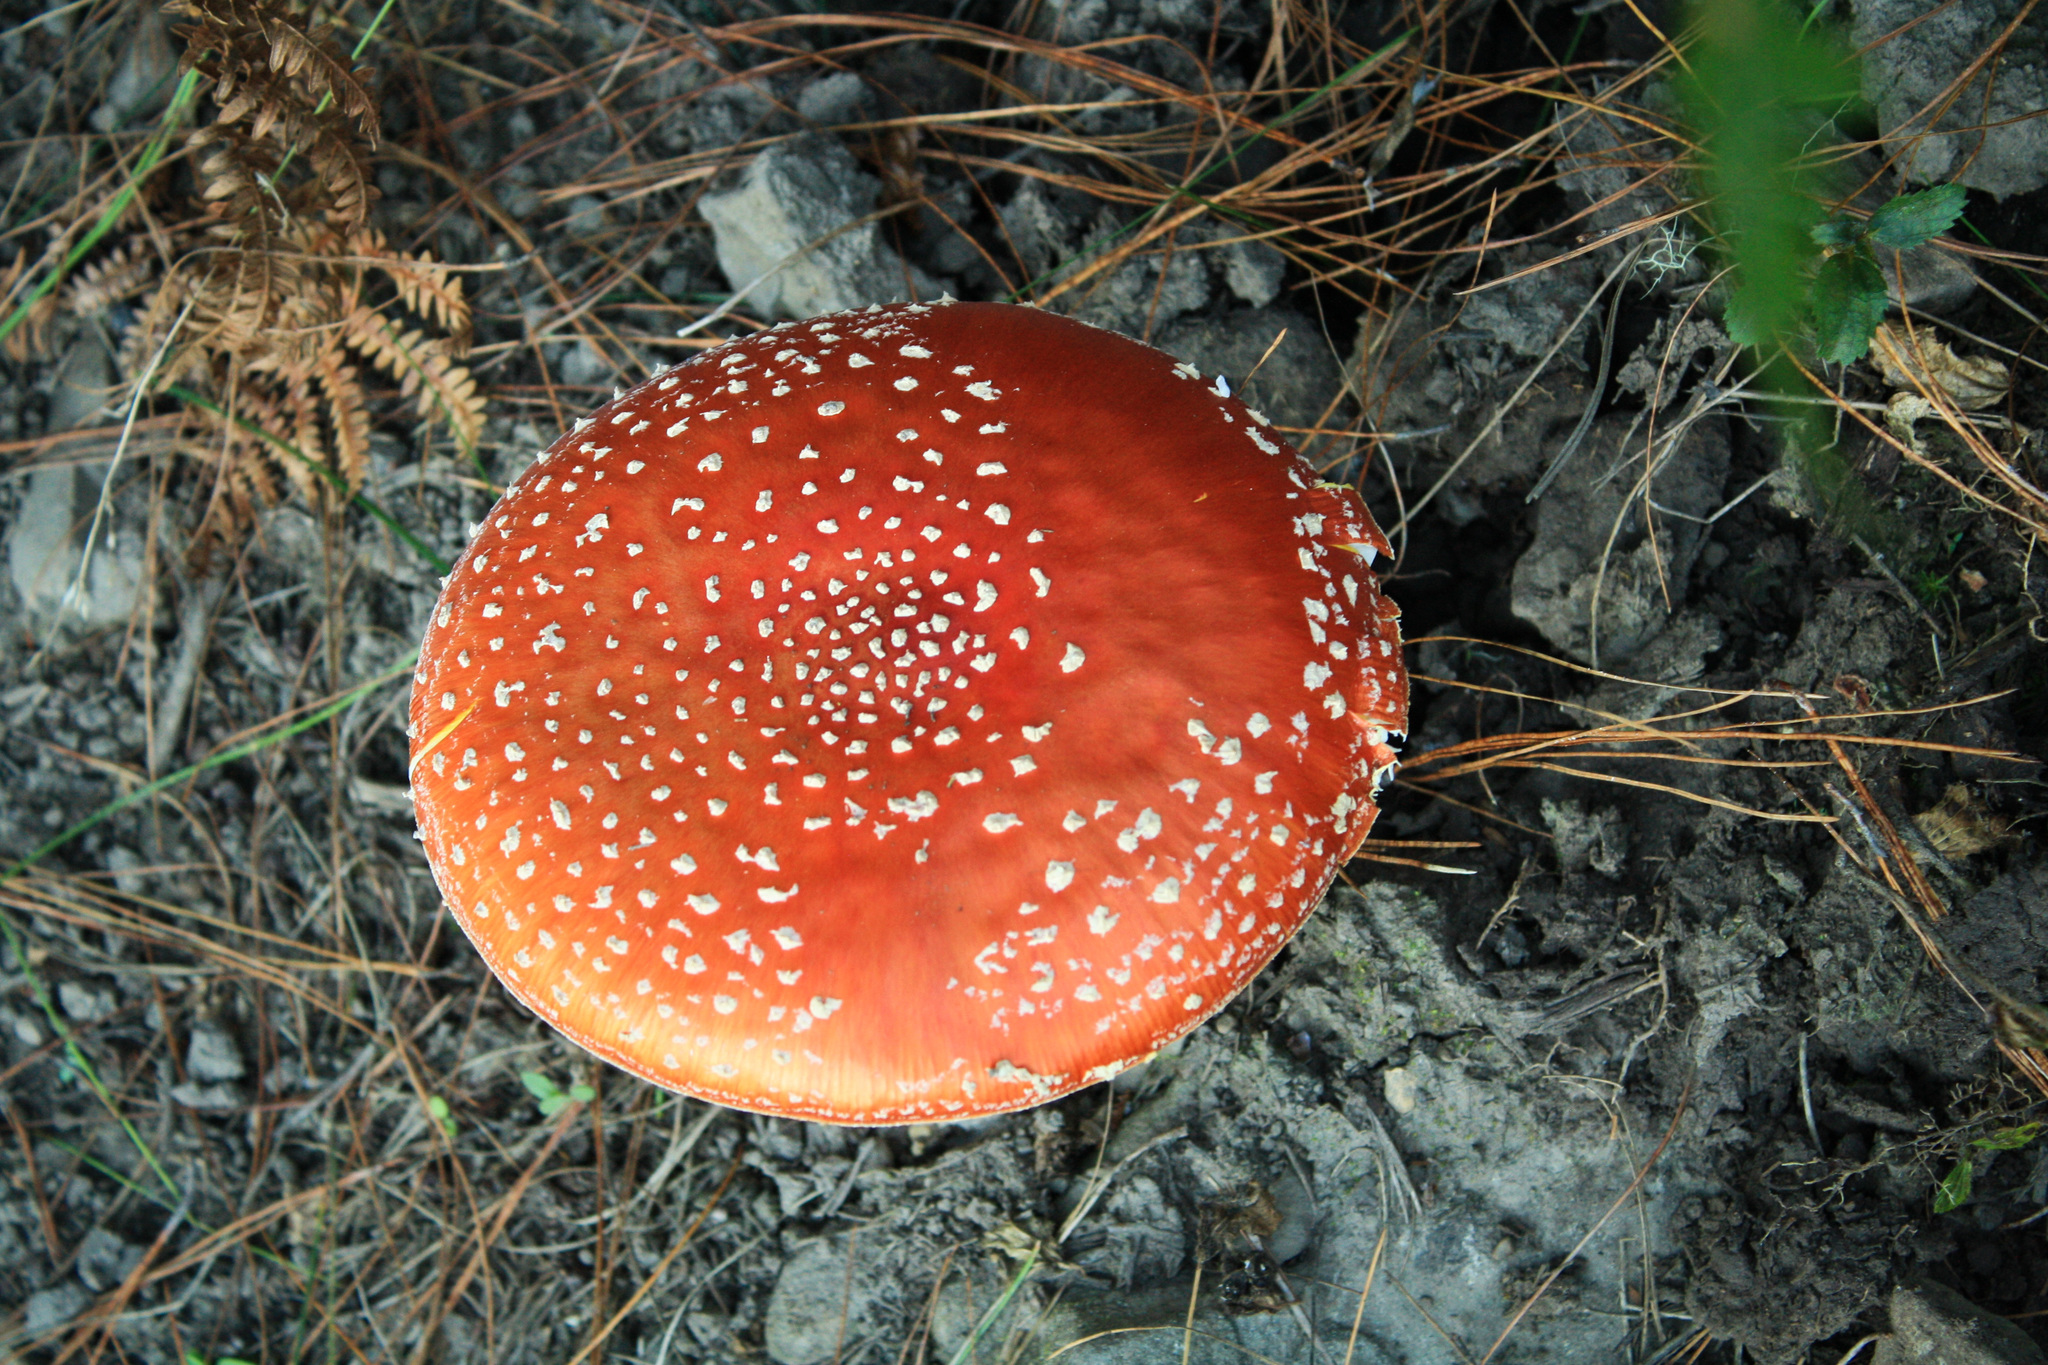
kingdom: Fungi
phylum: Basidiomycota
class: Agaricomycetes
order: Agaricales
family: Amanitaceae
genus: Amanita
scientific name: Amanita muscaria
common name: Fly agaric
